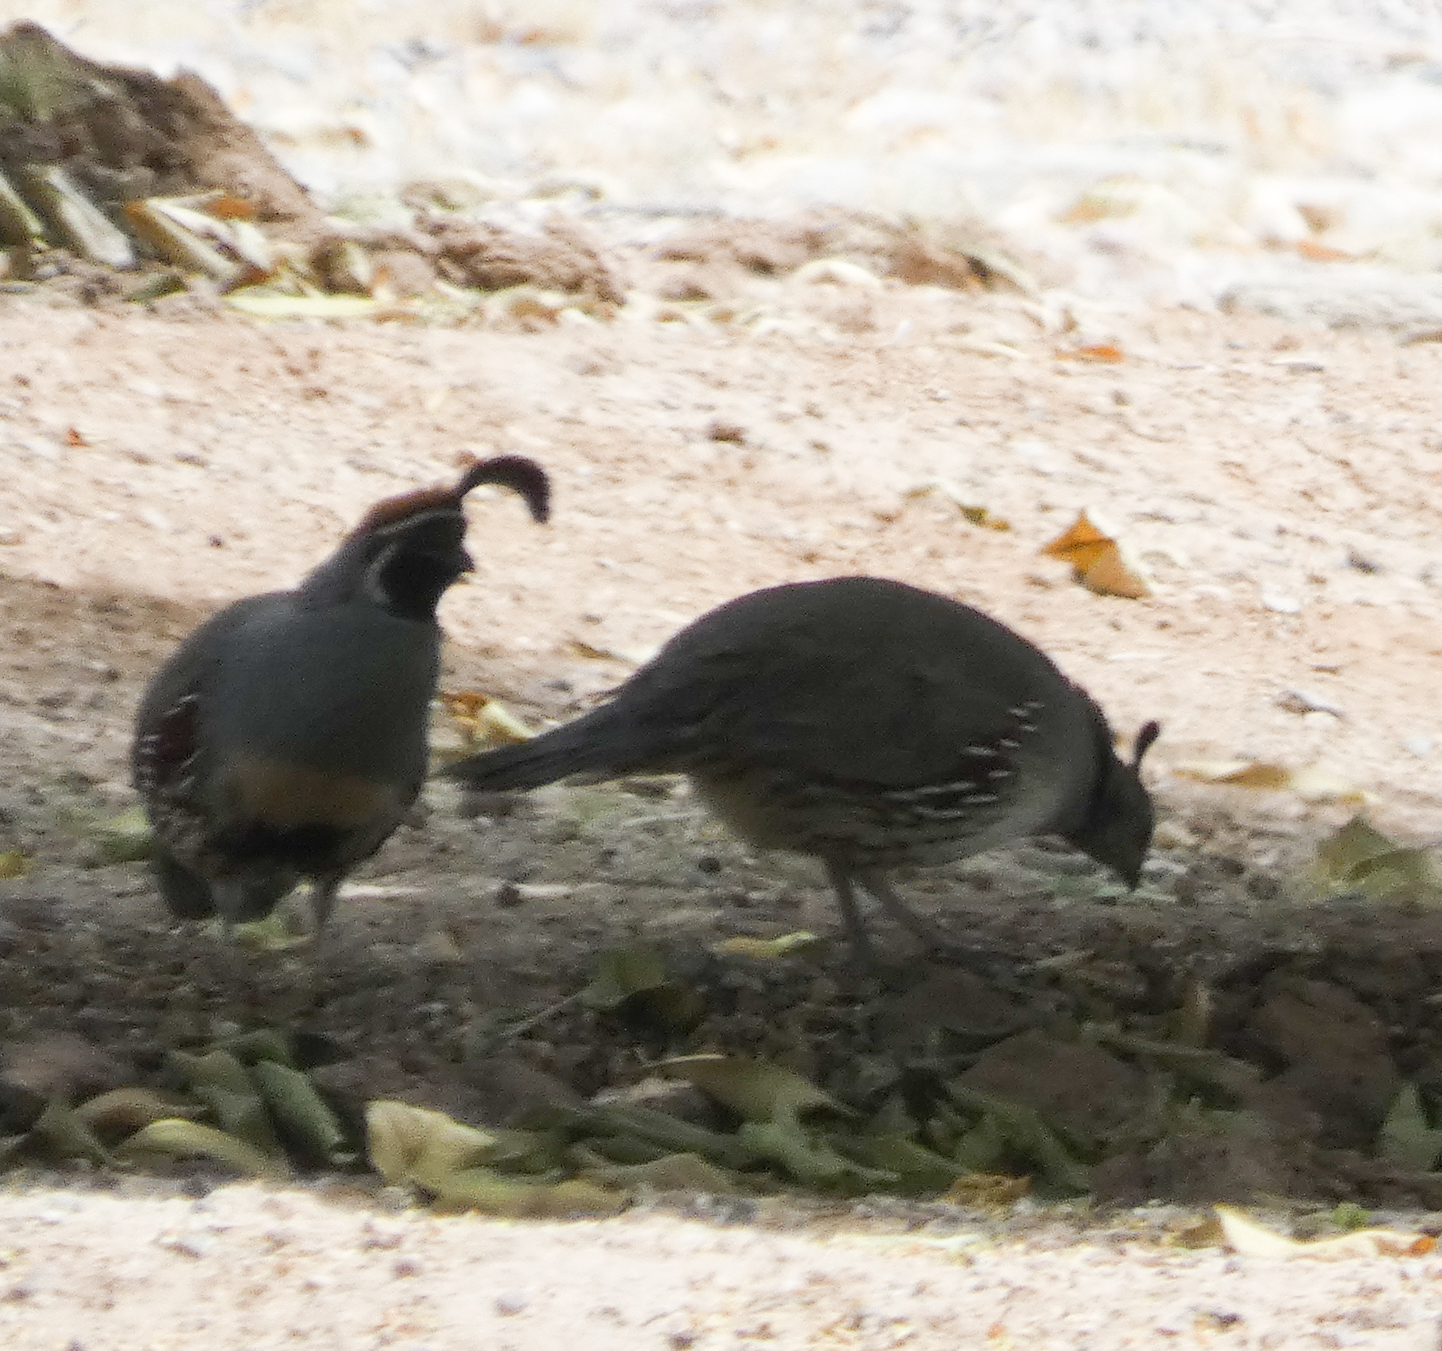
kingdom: Animalia
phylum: Chordata
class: Aves
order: Galliformes
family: Odontophoridae
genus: Callipepla
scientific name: Callipepla gambelii
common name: Gambel's quail
